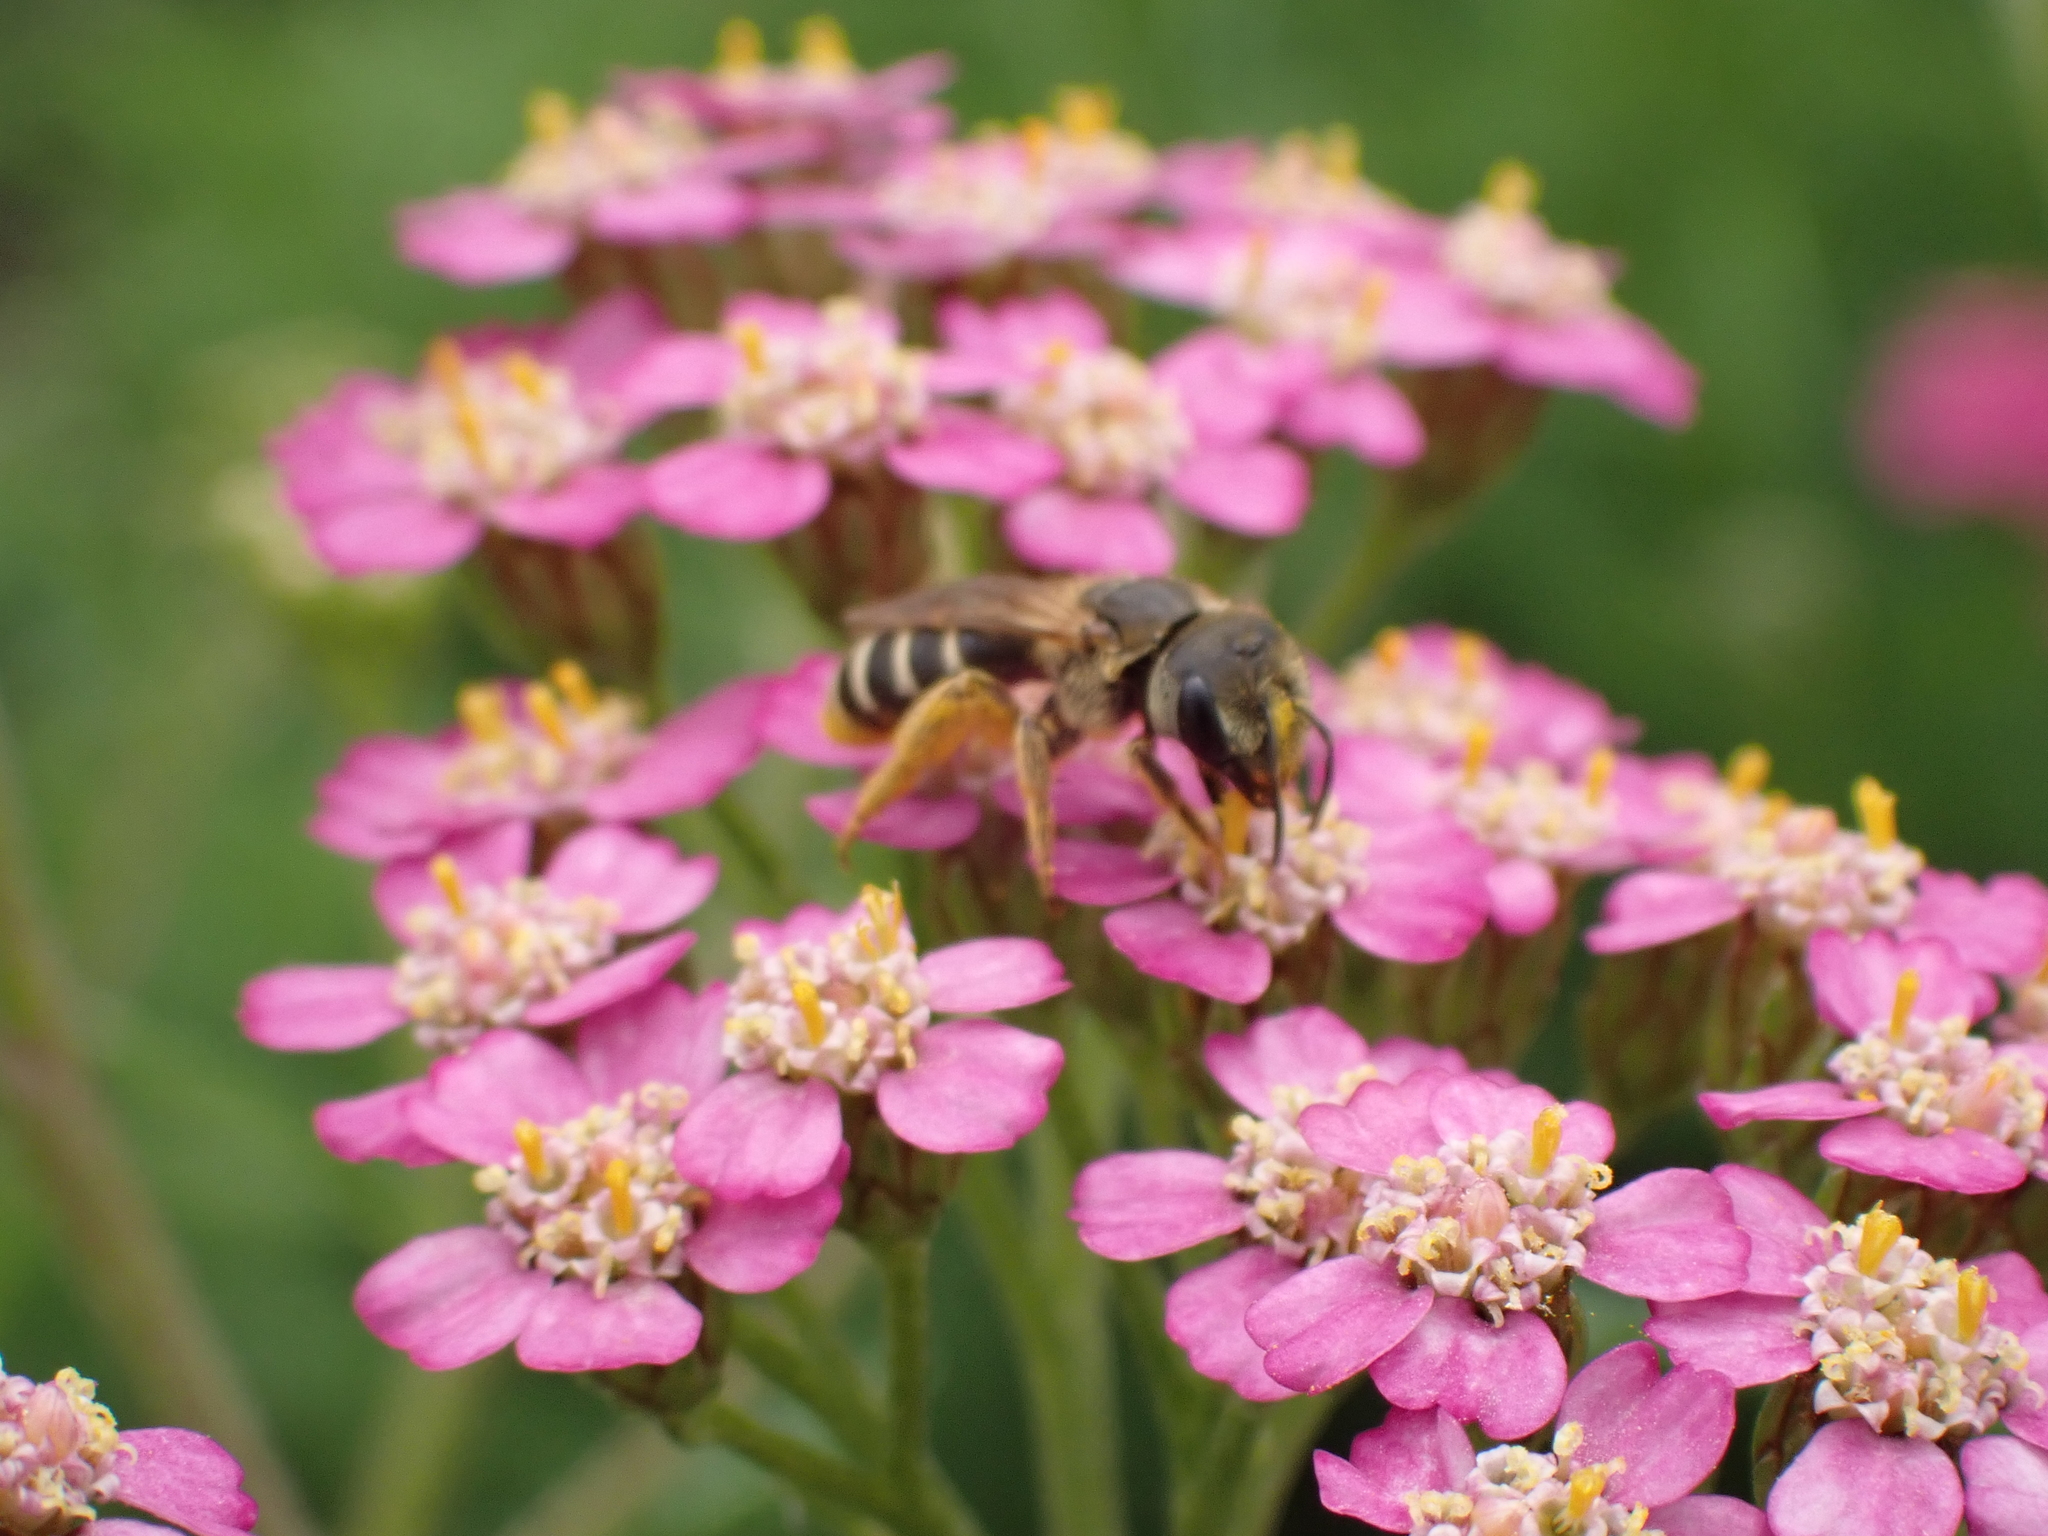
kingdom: Animalia
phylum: Arthropoda
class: Insecta
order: Hymenoptera
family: Halictidae
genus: Halictus
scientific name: Halictus ligatus
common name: Ligated furrow bee
